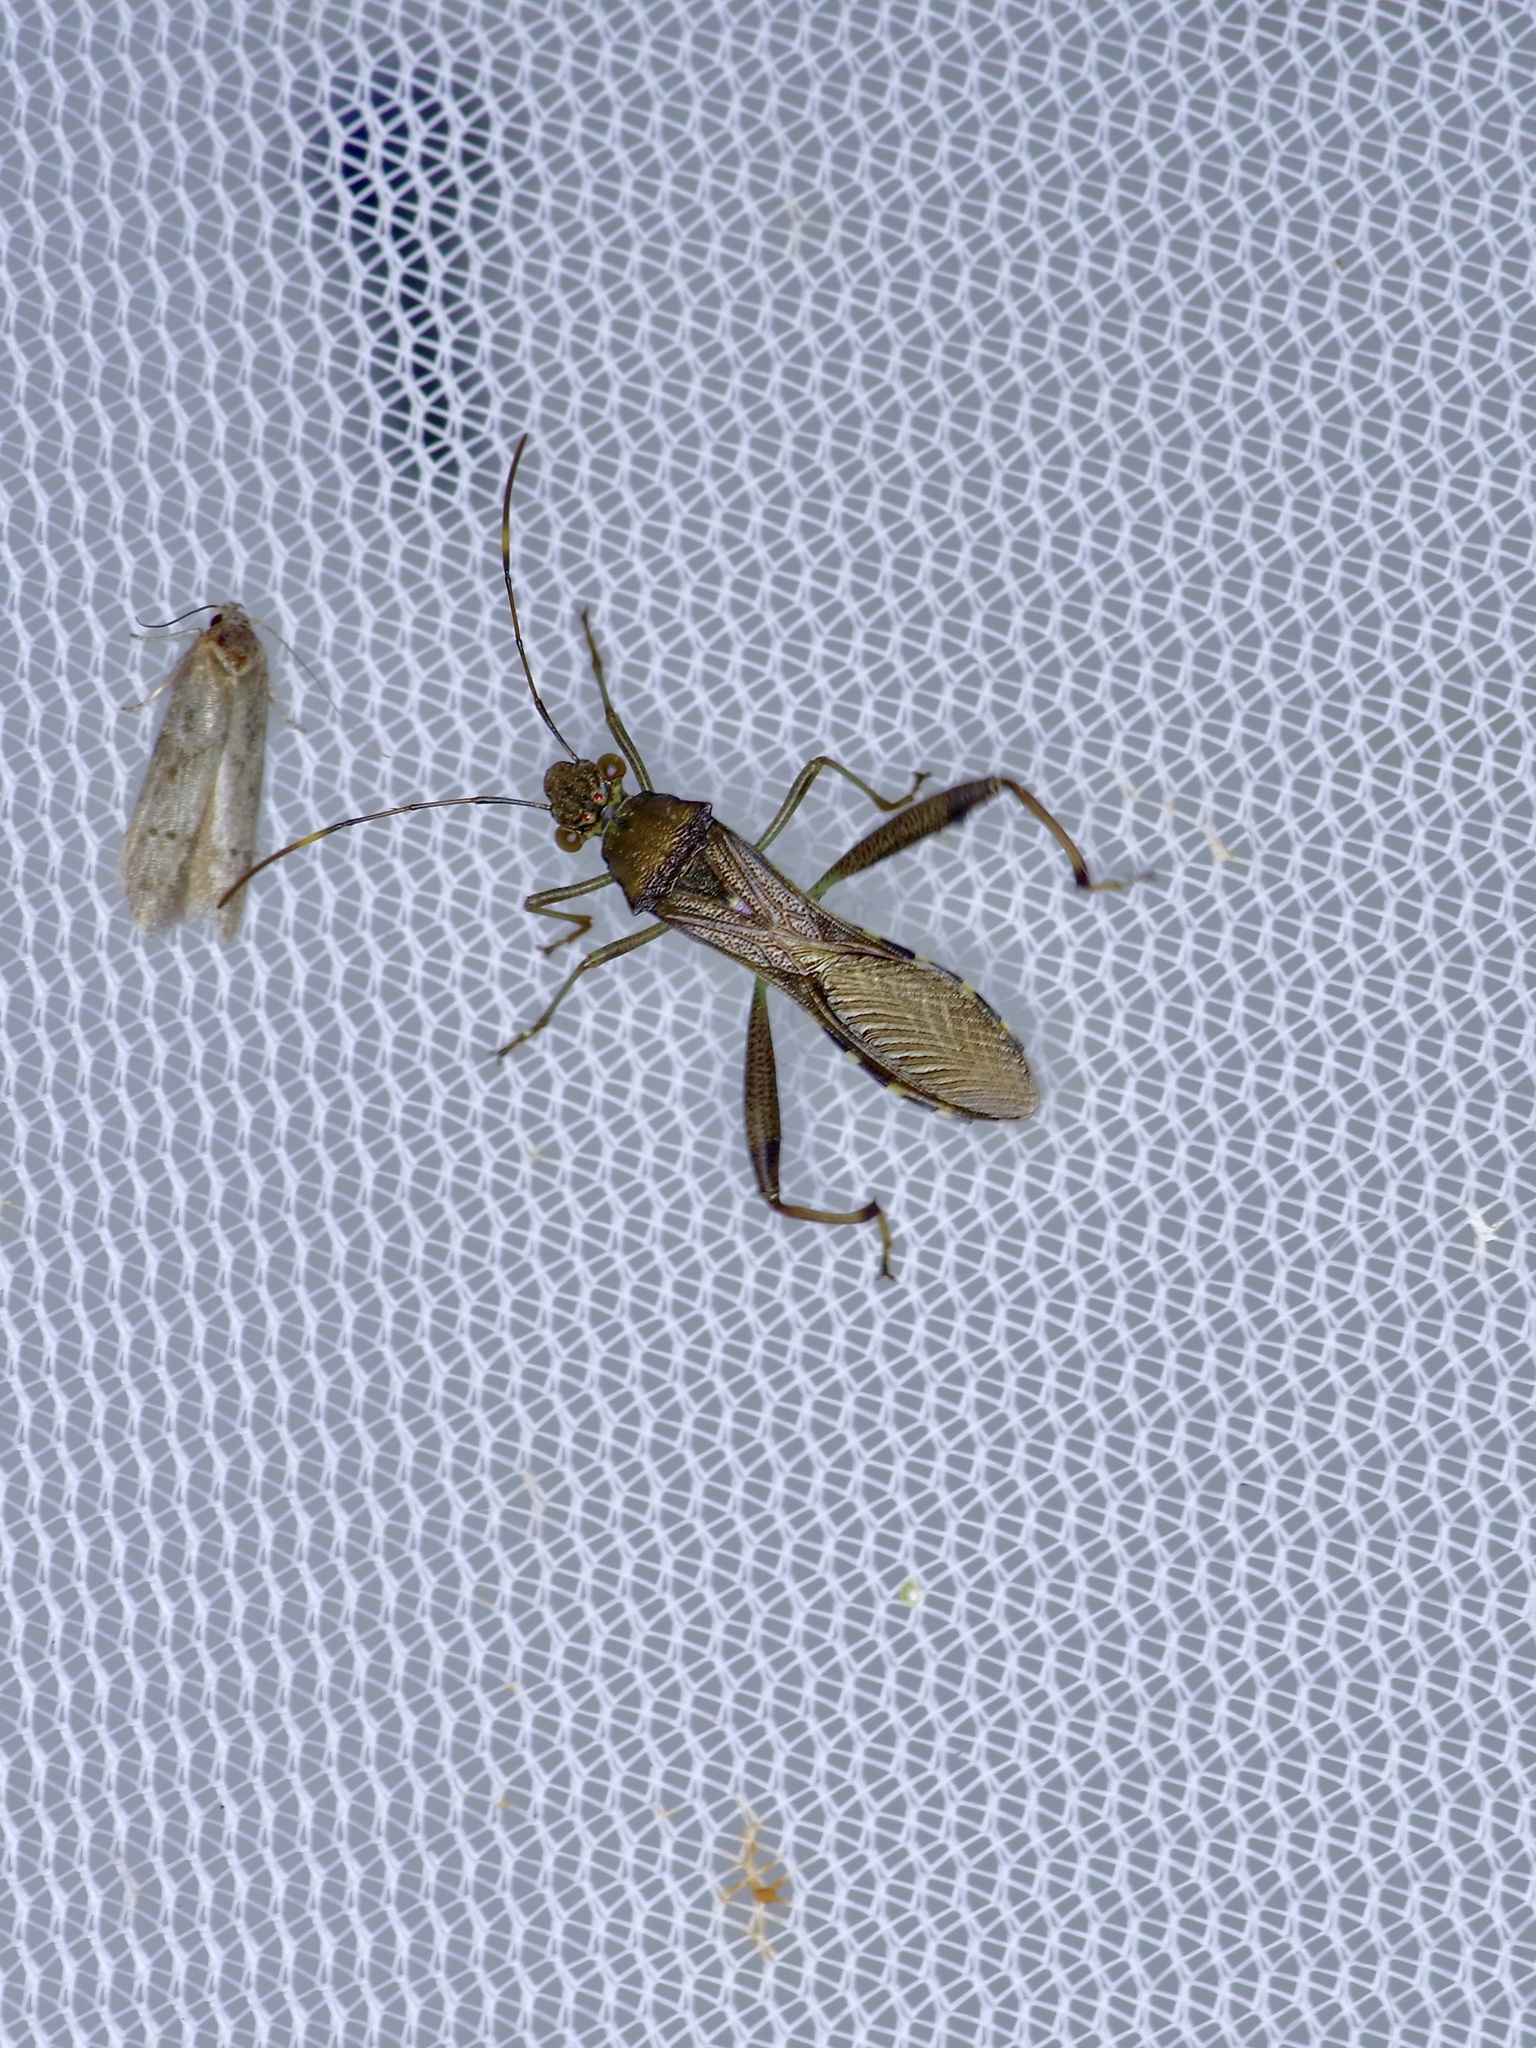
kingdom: Animalia
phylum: Arthropoda
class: Insecta
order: Hemiptera
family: Alydidae
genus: Hyalymenus
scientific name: Hyalymenus tarsatus
